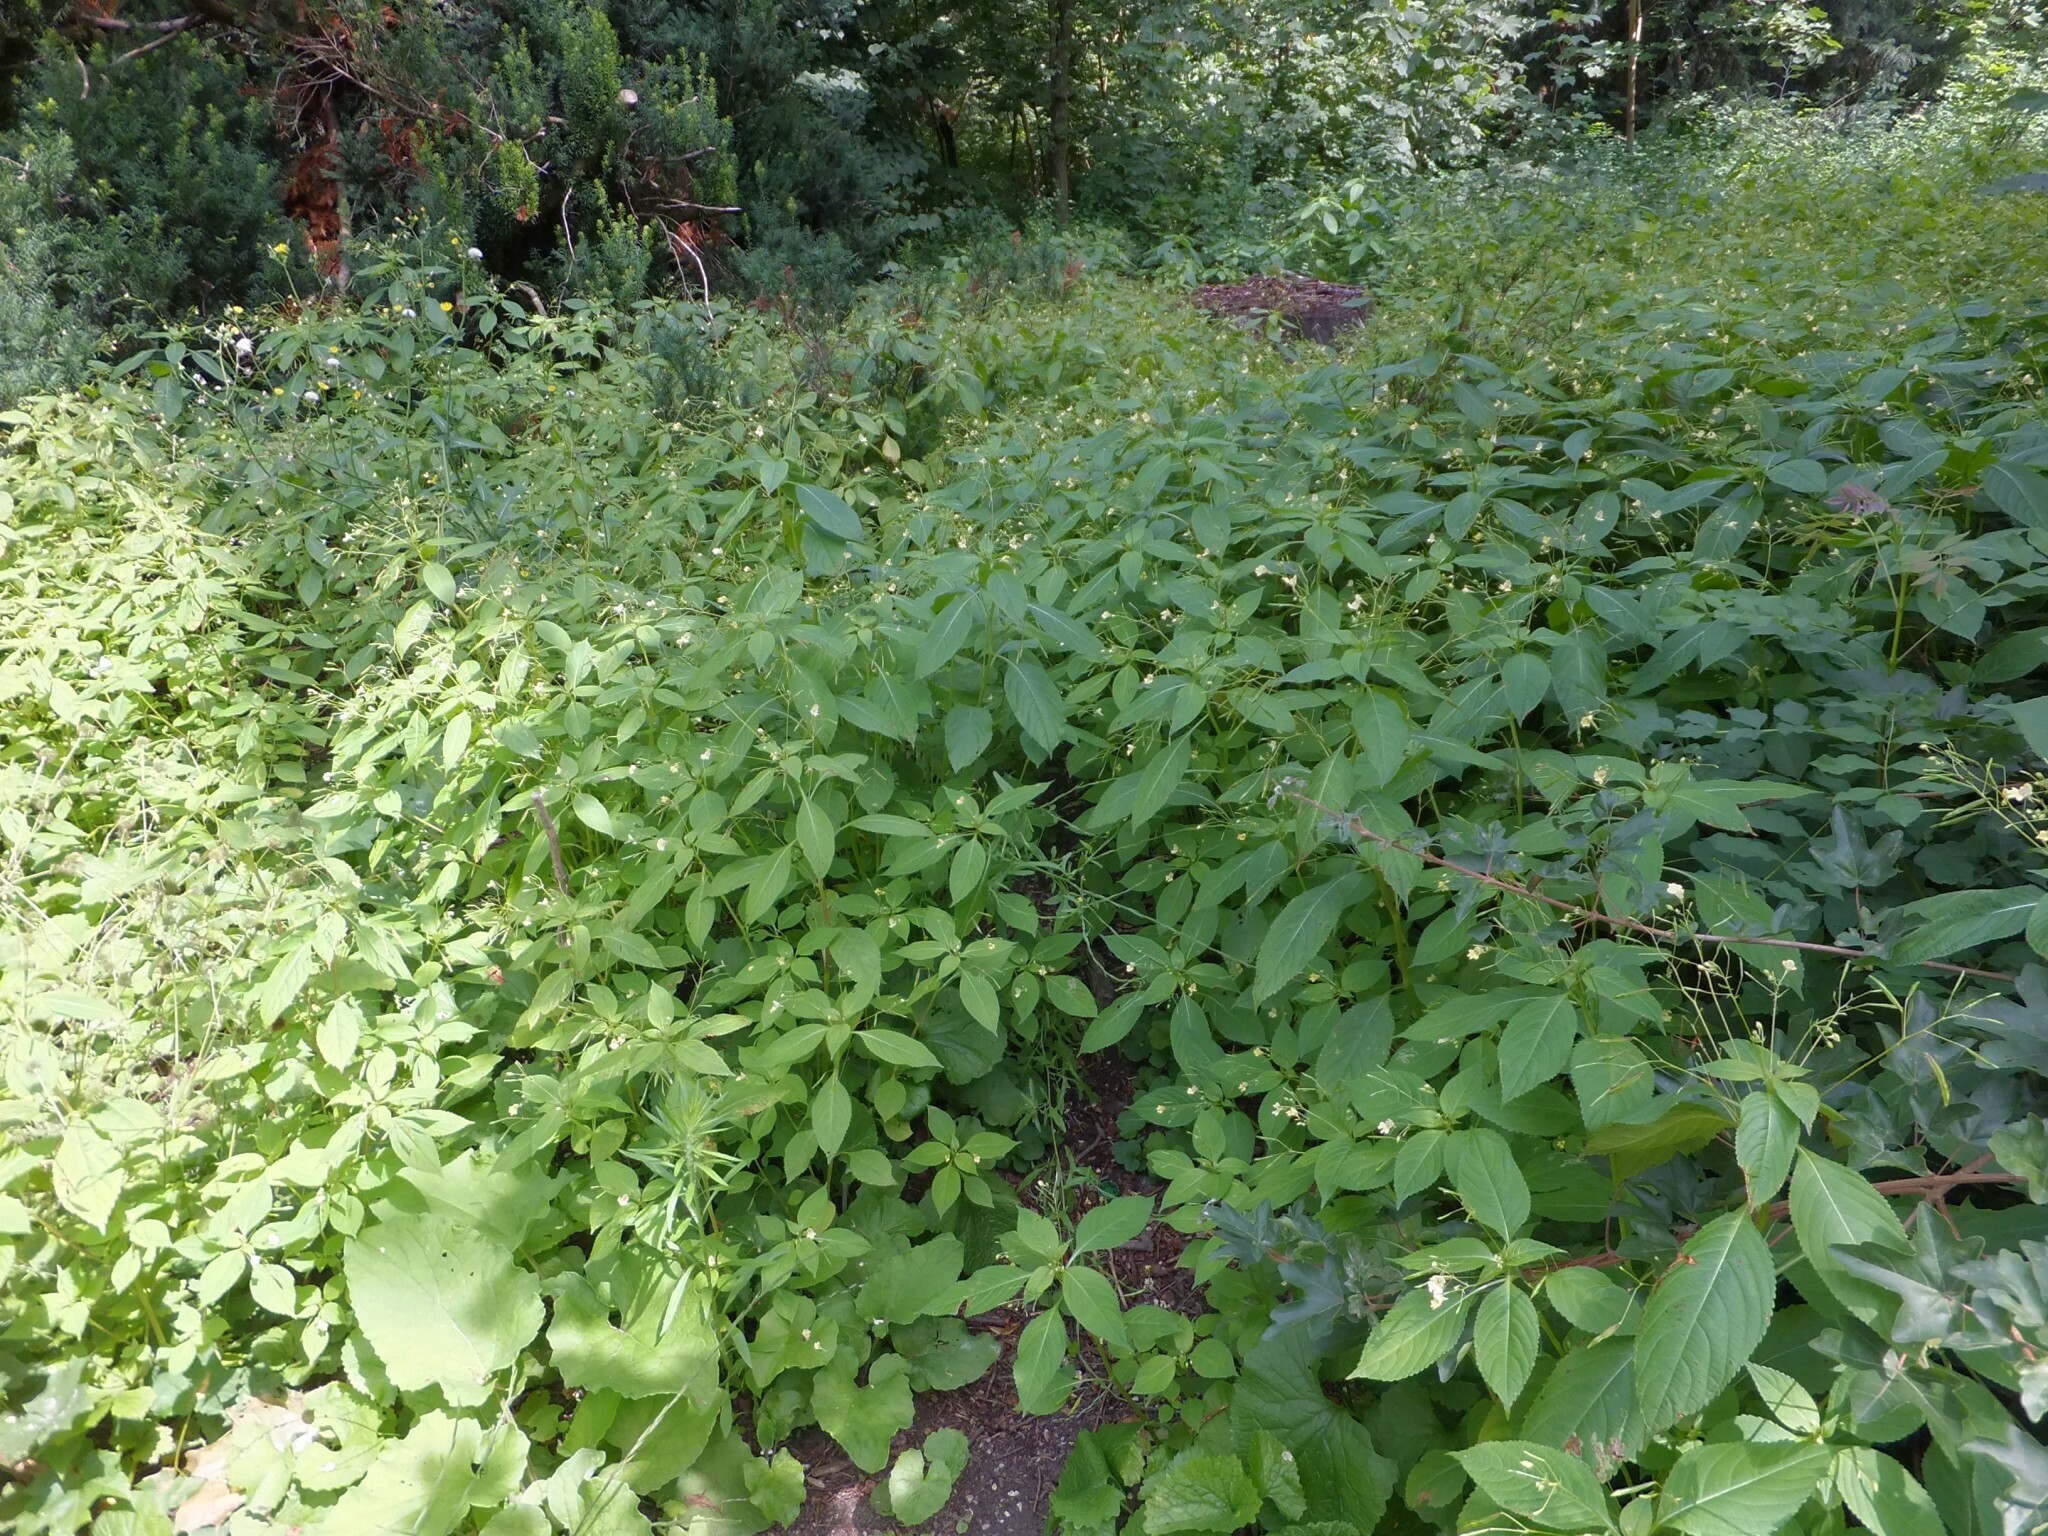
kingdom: Plantae
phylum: Tracheophyta
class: Magnoliopsida
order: Ericales
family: Balsaminaceae
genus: Impatiens
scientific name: Impatiens parviflora
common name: Small balsam
